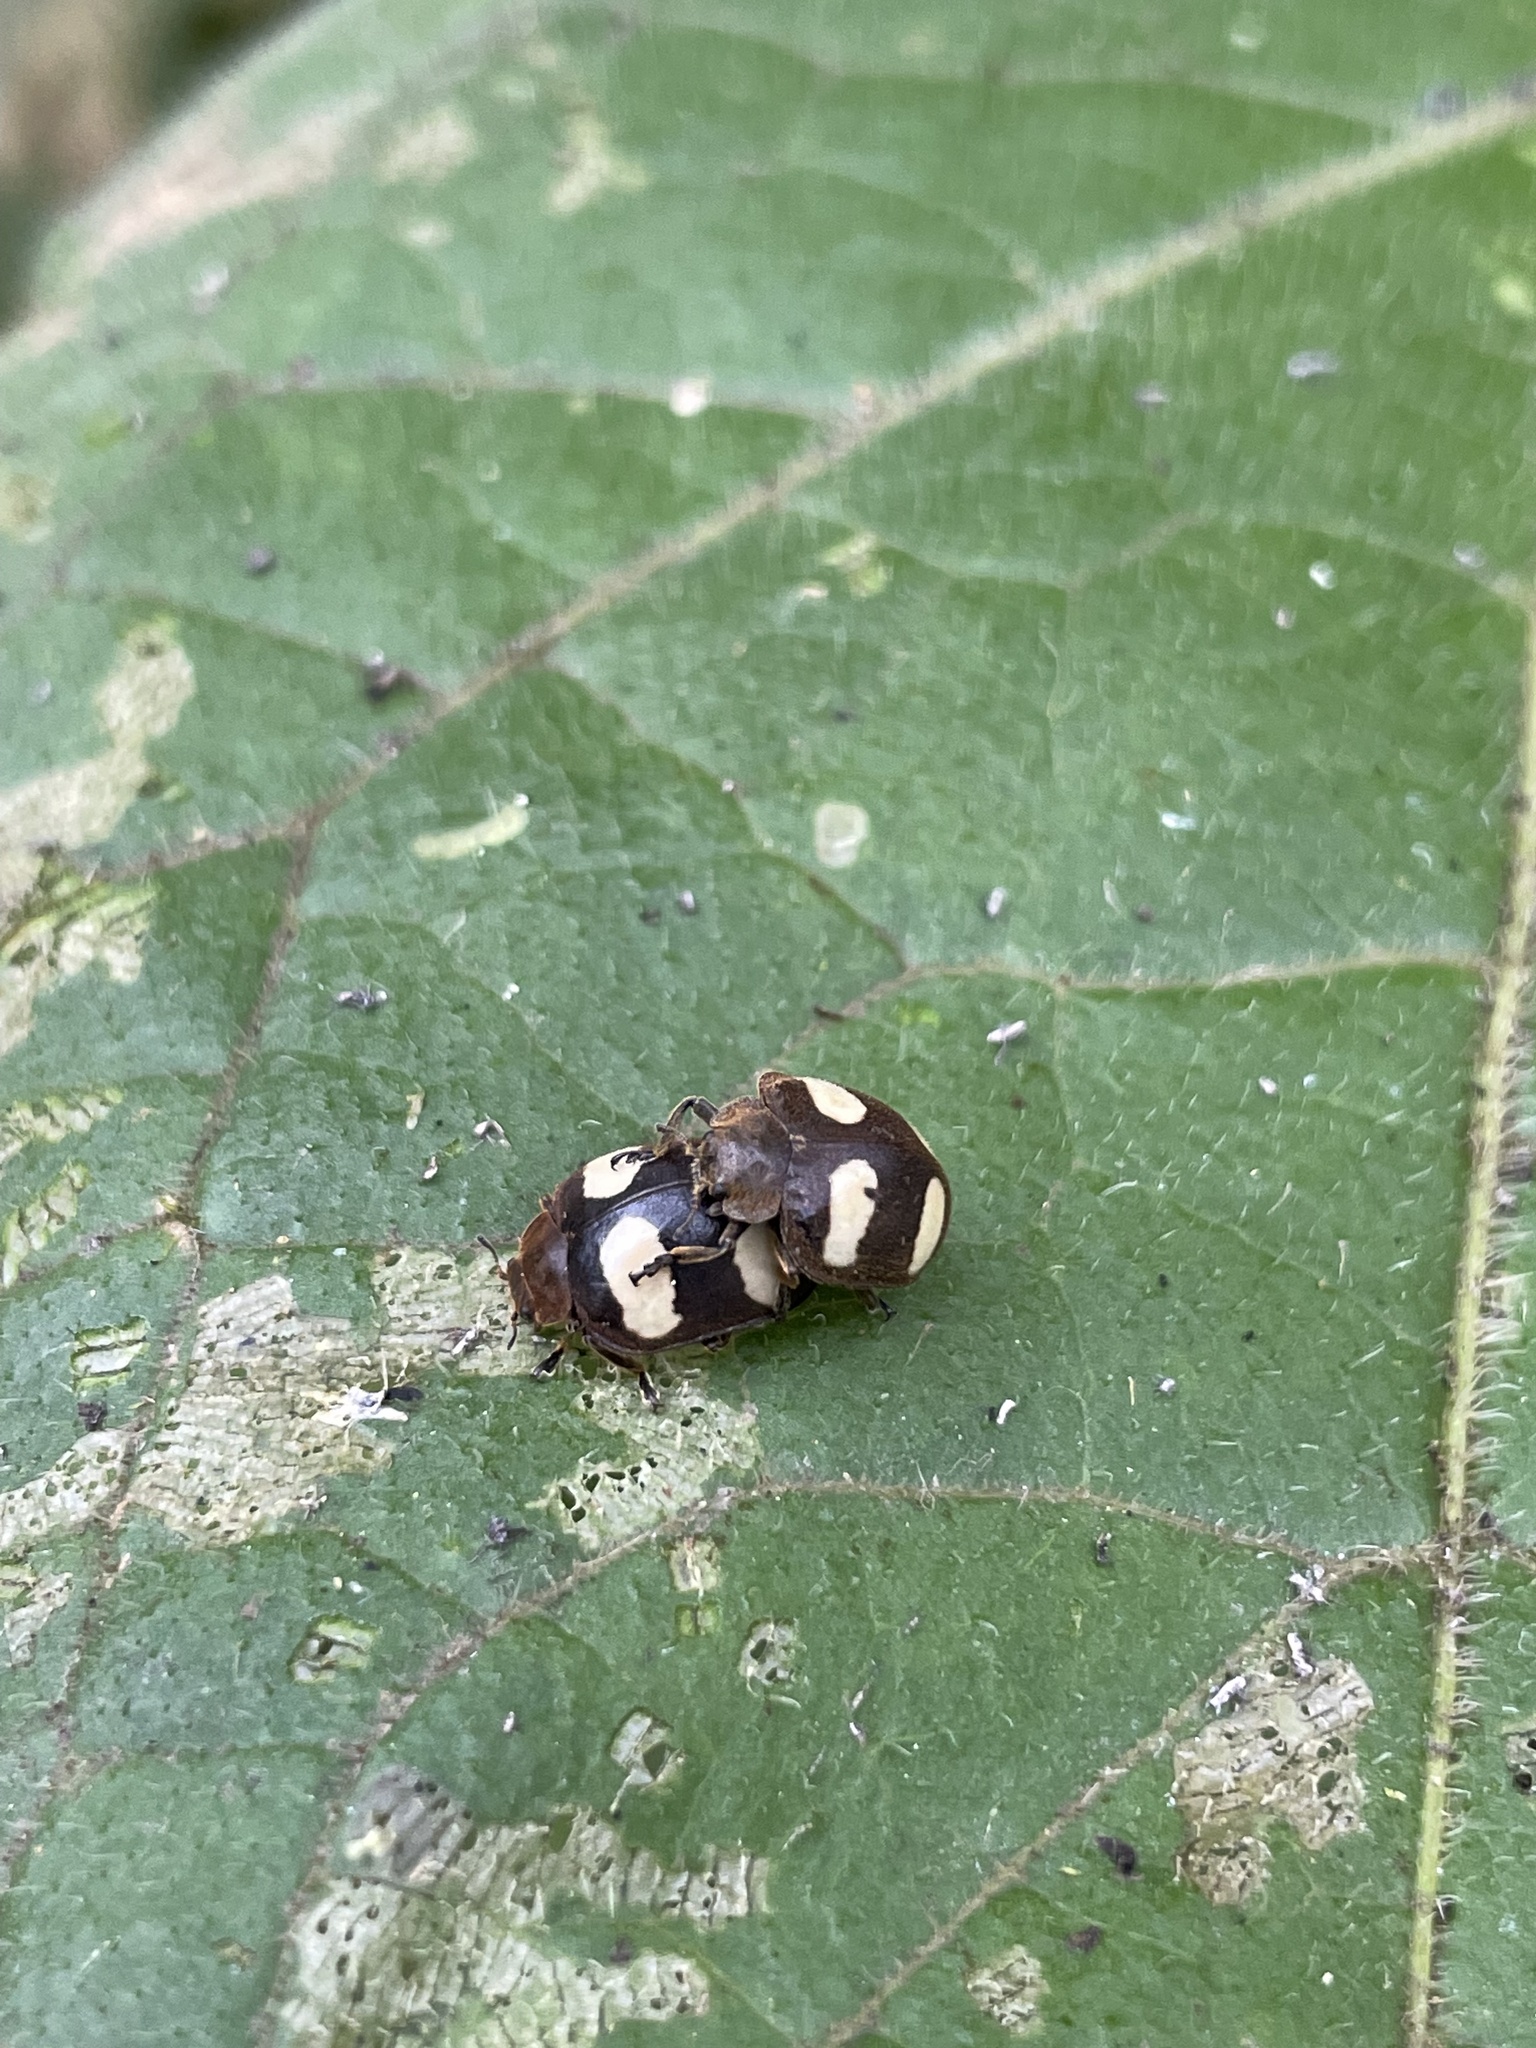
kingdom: Animalia
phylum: Arthropoda
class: Insecta
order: Coleoptera
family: Coccinellidae
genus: Epilachna
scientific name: Epilachna
